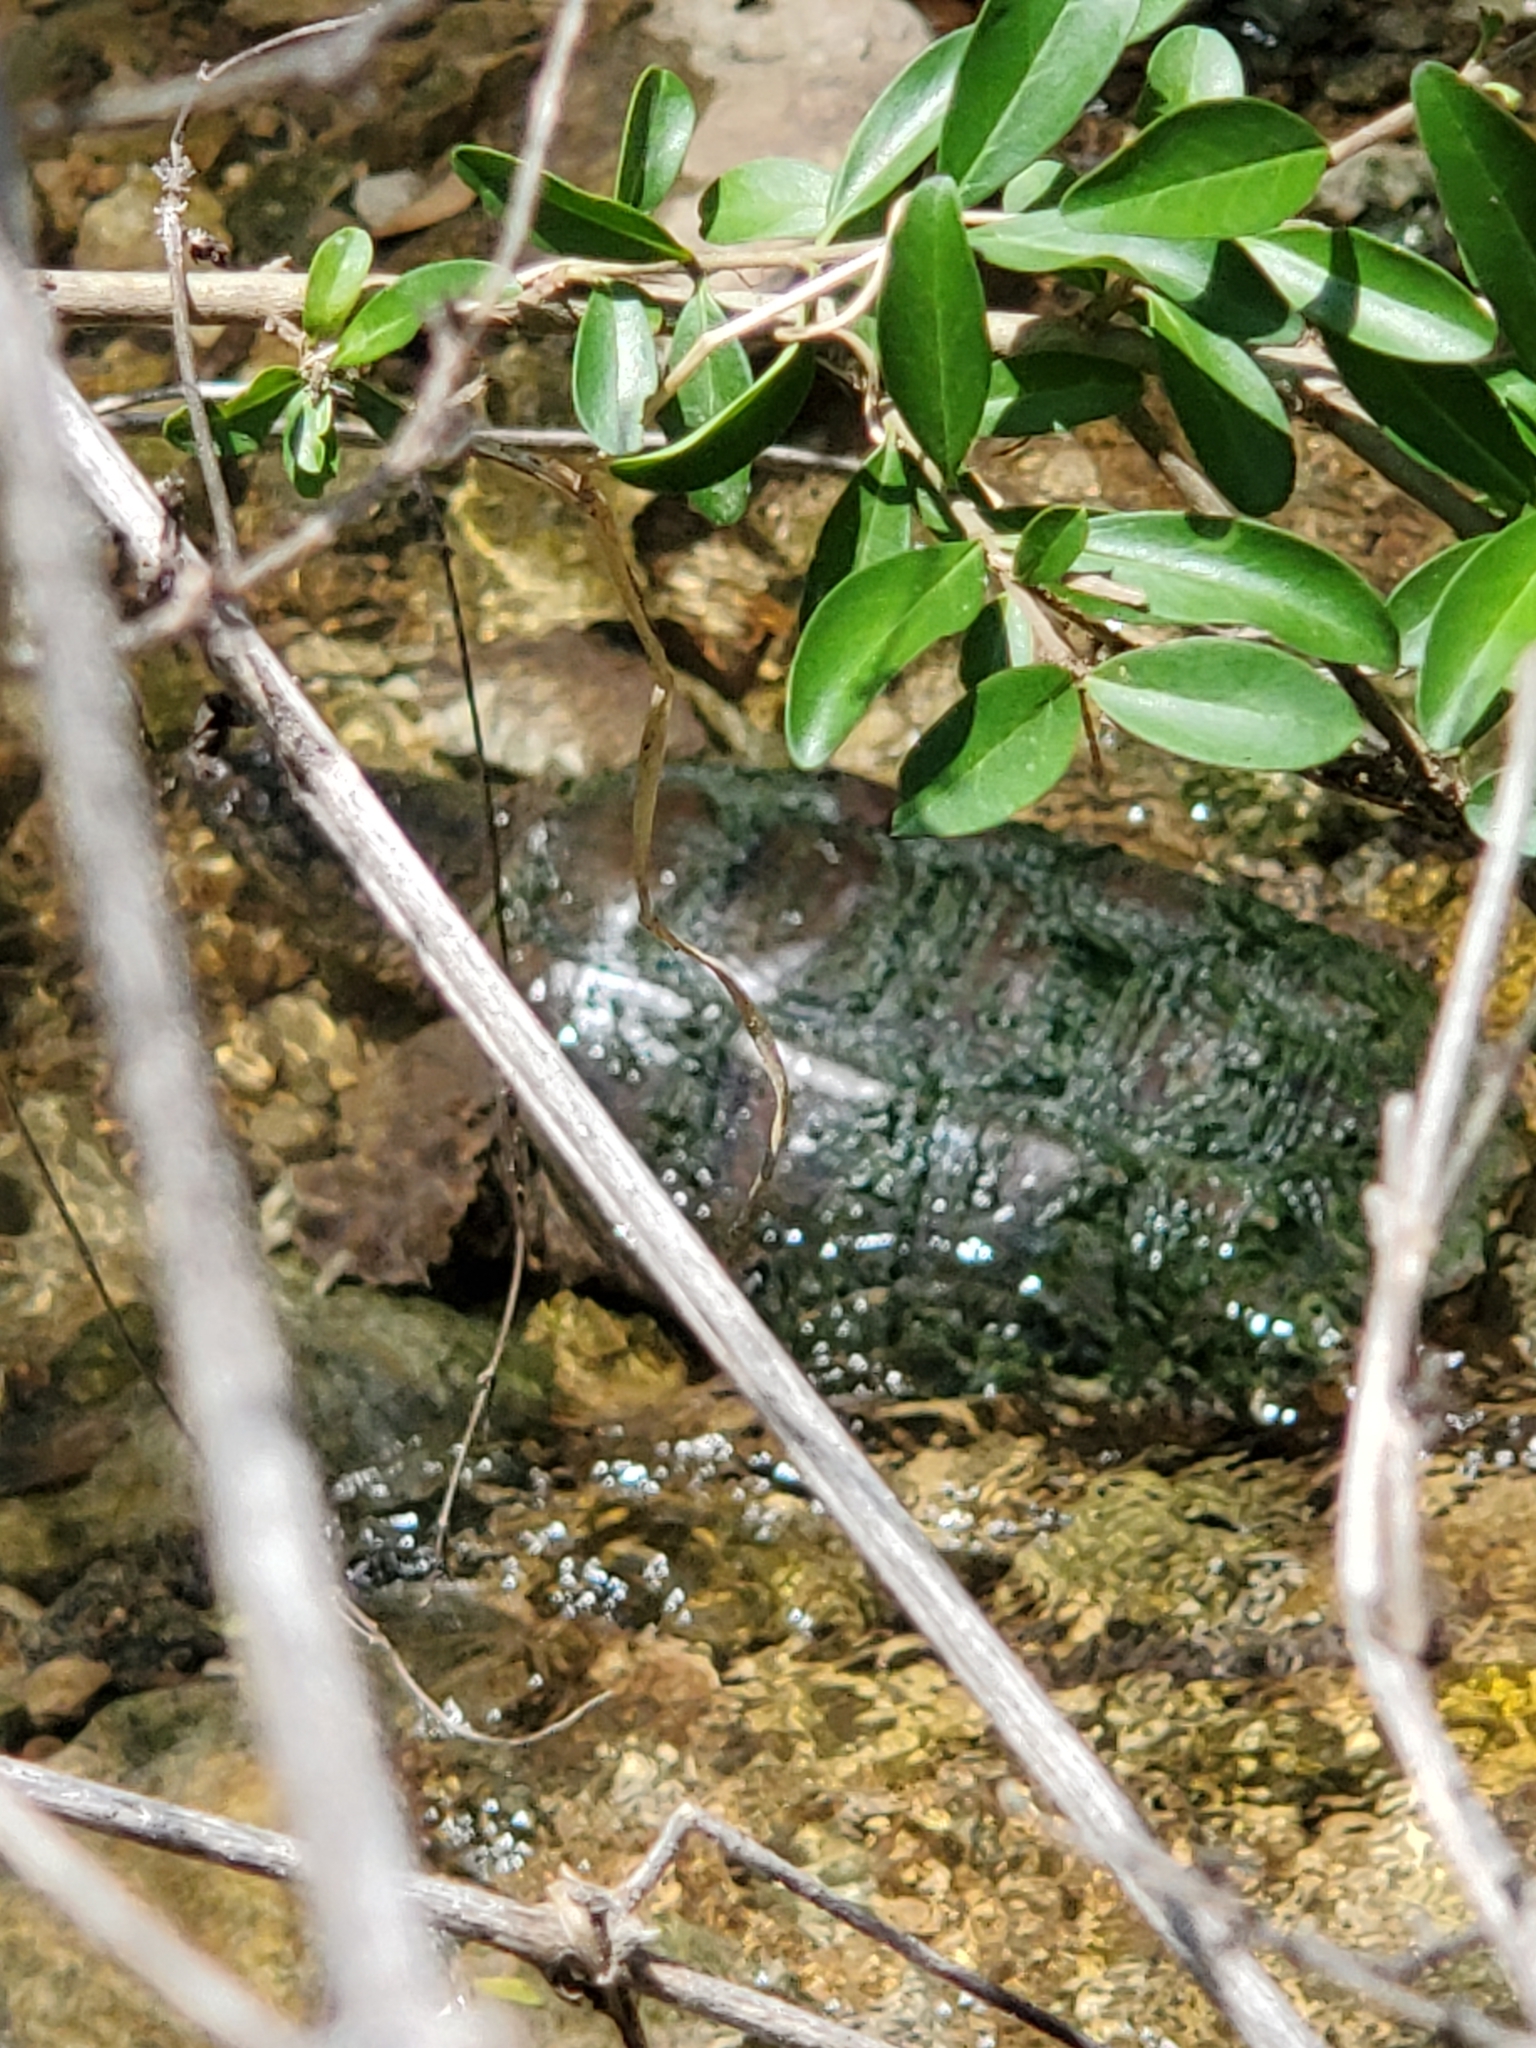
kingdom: Animalia
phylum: Chordata
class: Testudines
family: Chelydridae
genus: Chelydra
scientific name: Chelydra serpentina
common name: Common snapping turtle
